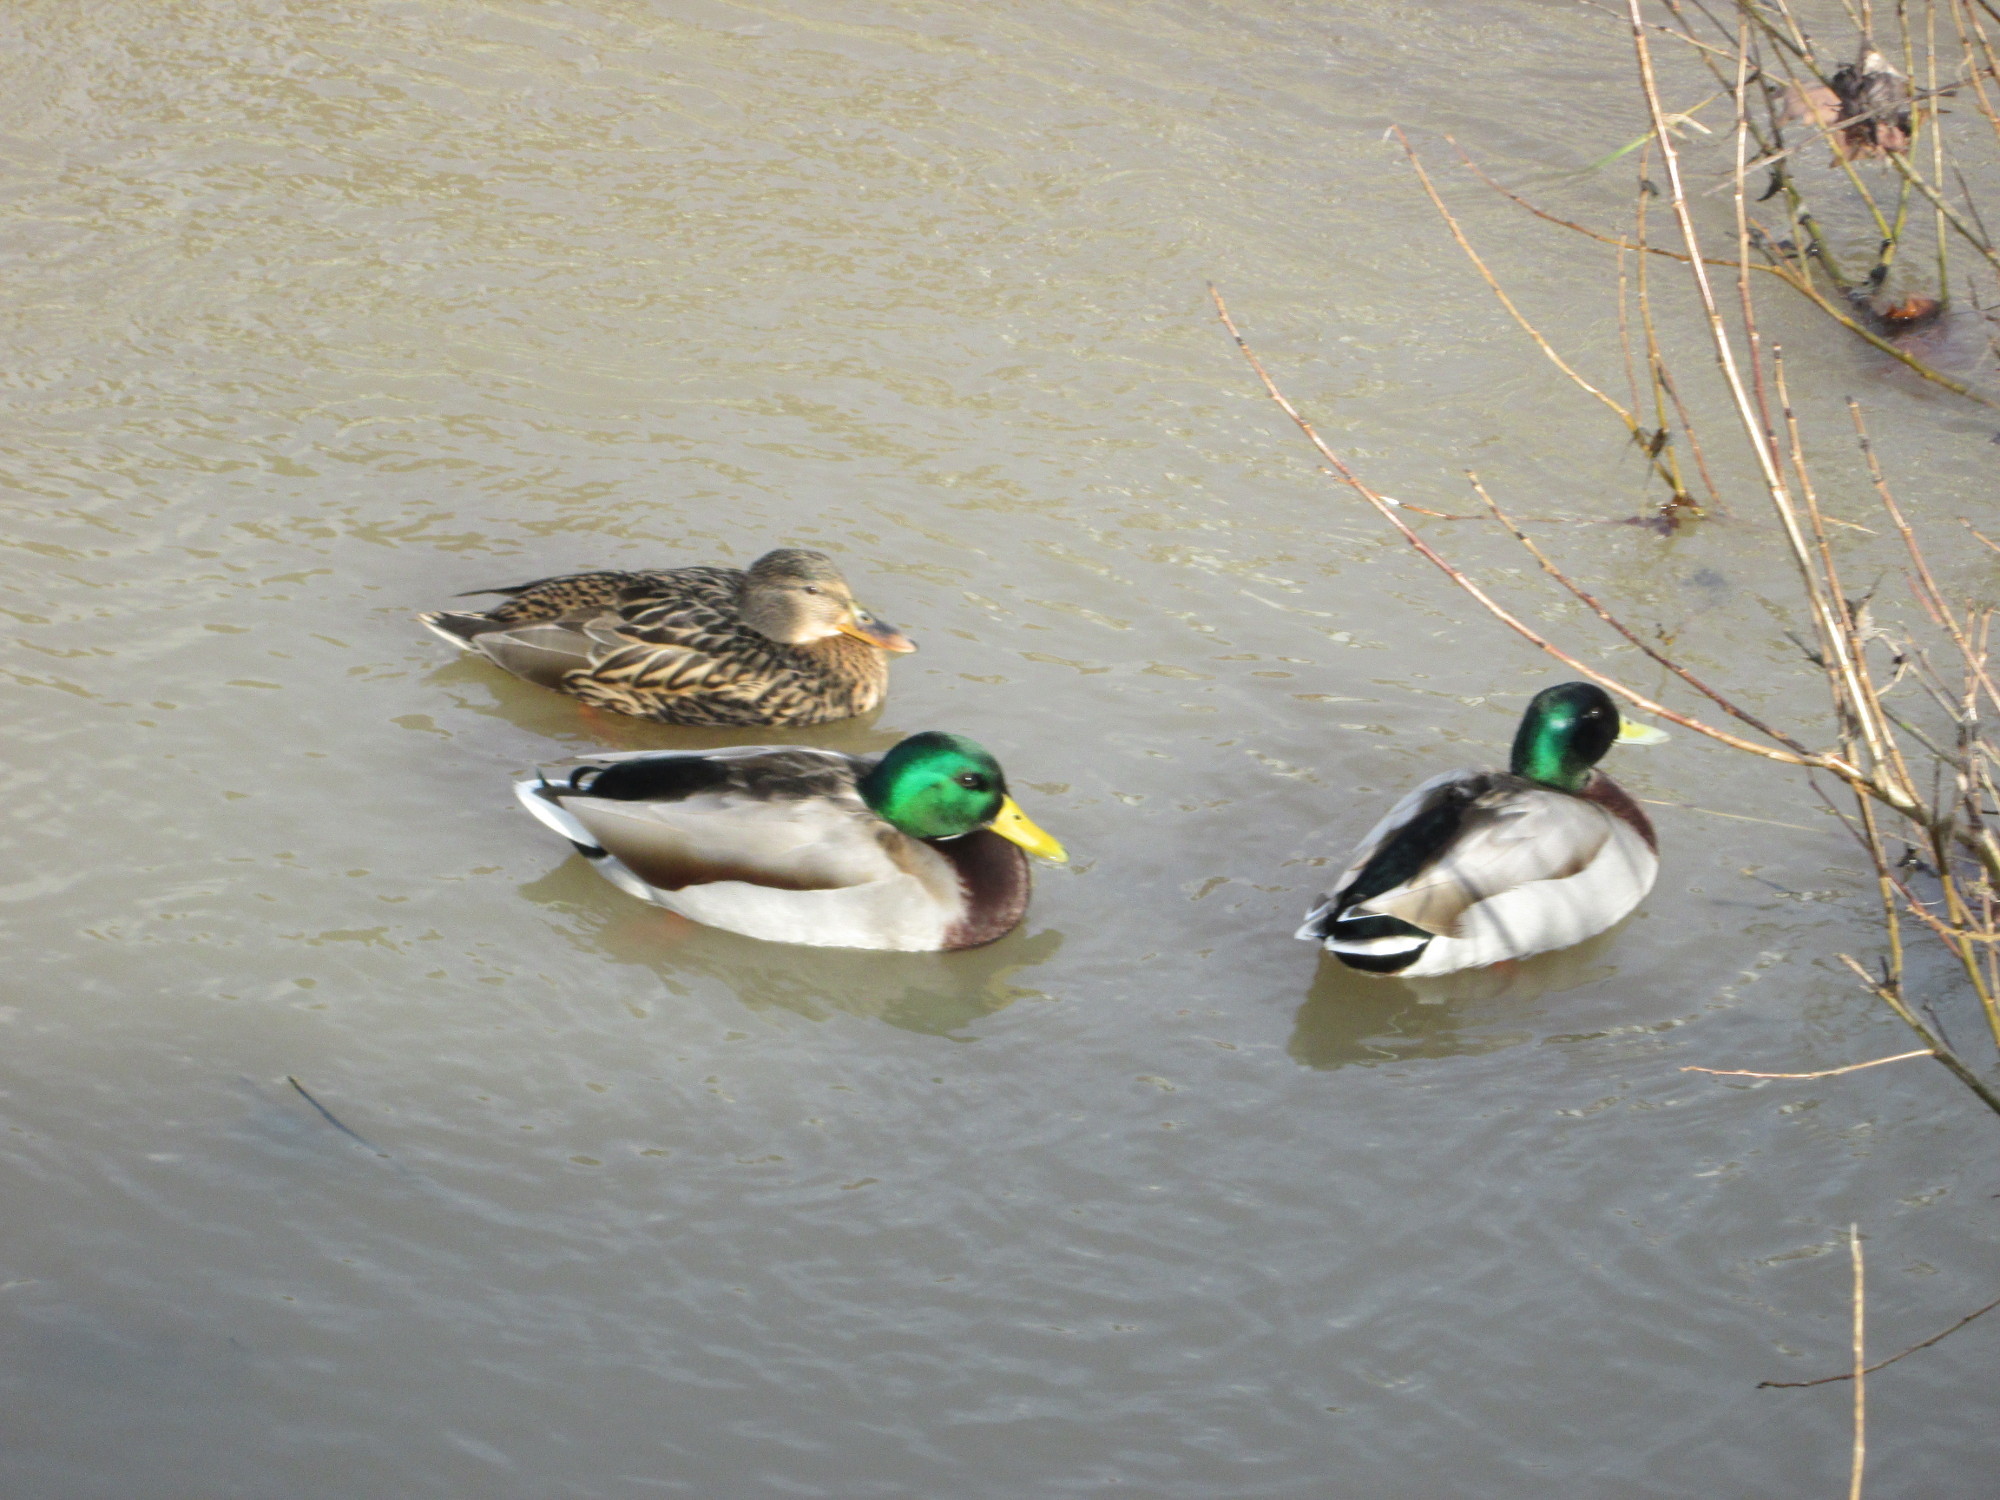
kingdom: Animalia
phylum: Chordata
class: Aves
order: Anseriformes
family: Anatidae
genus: Anas
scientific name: Anas platyrhynchos
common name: Mallard
